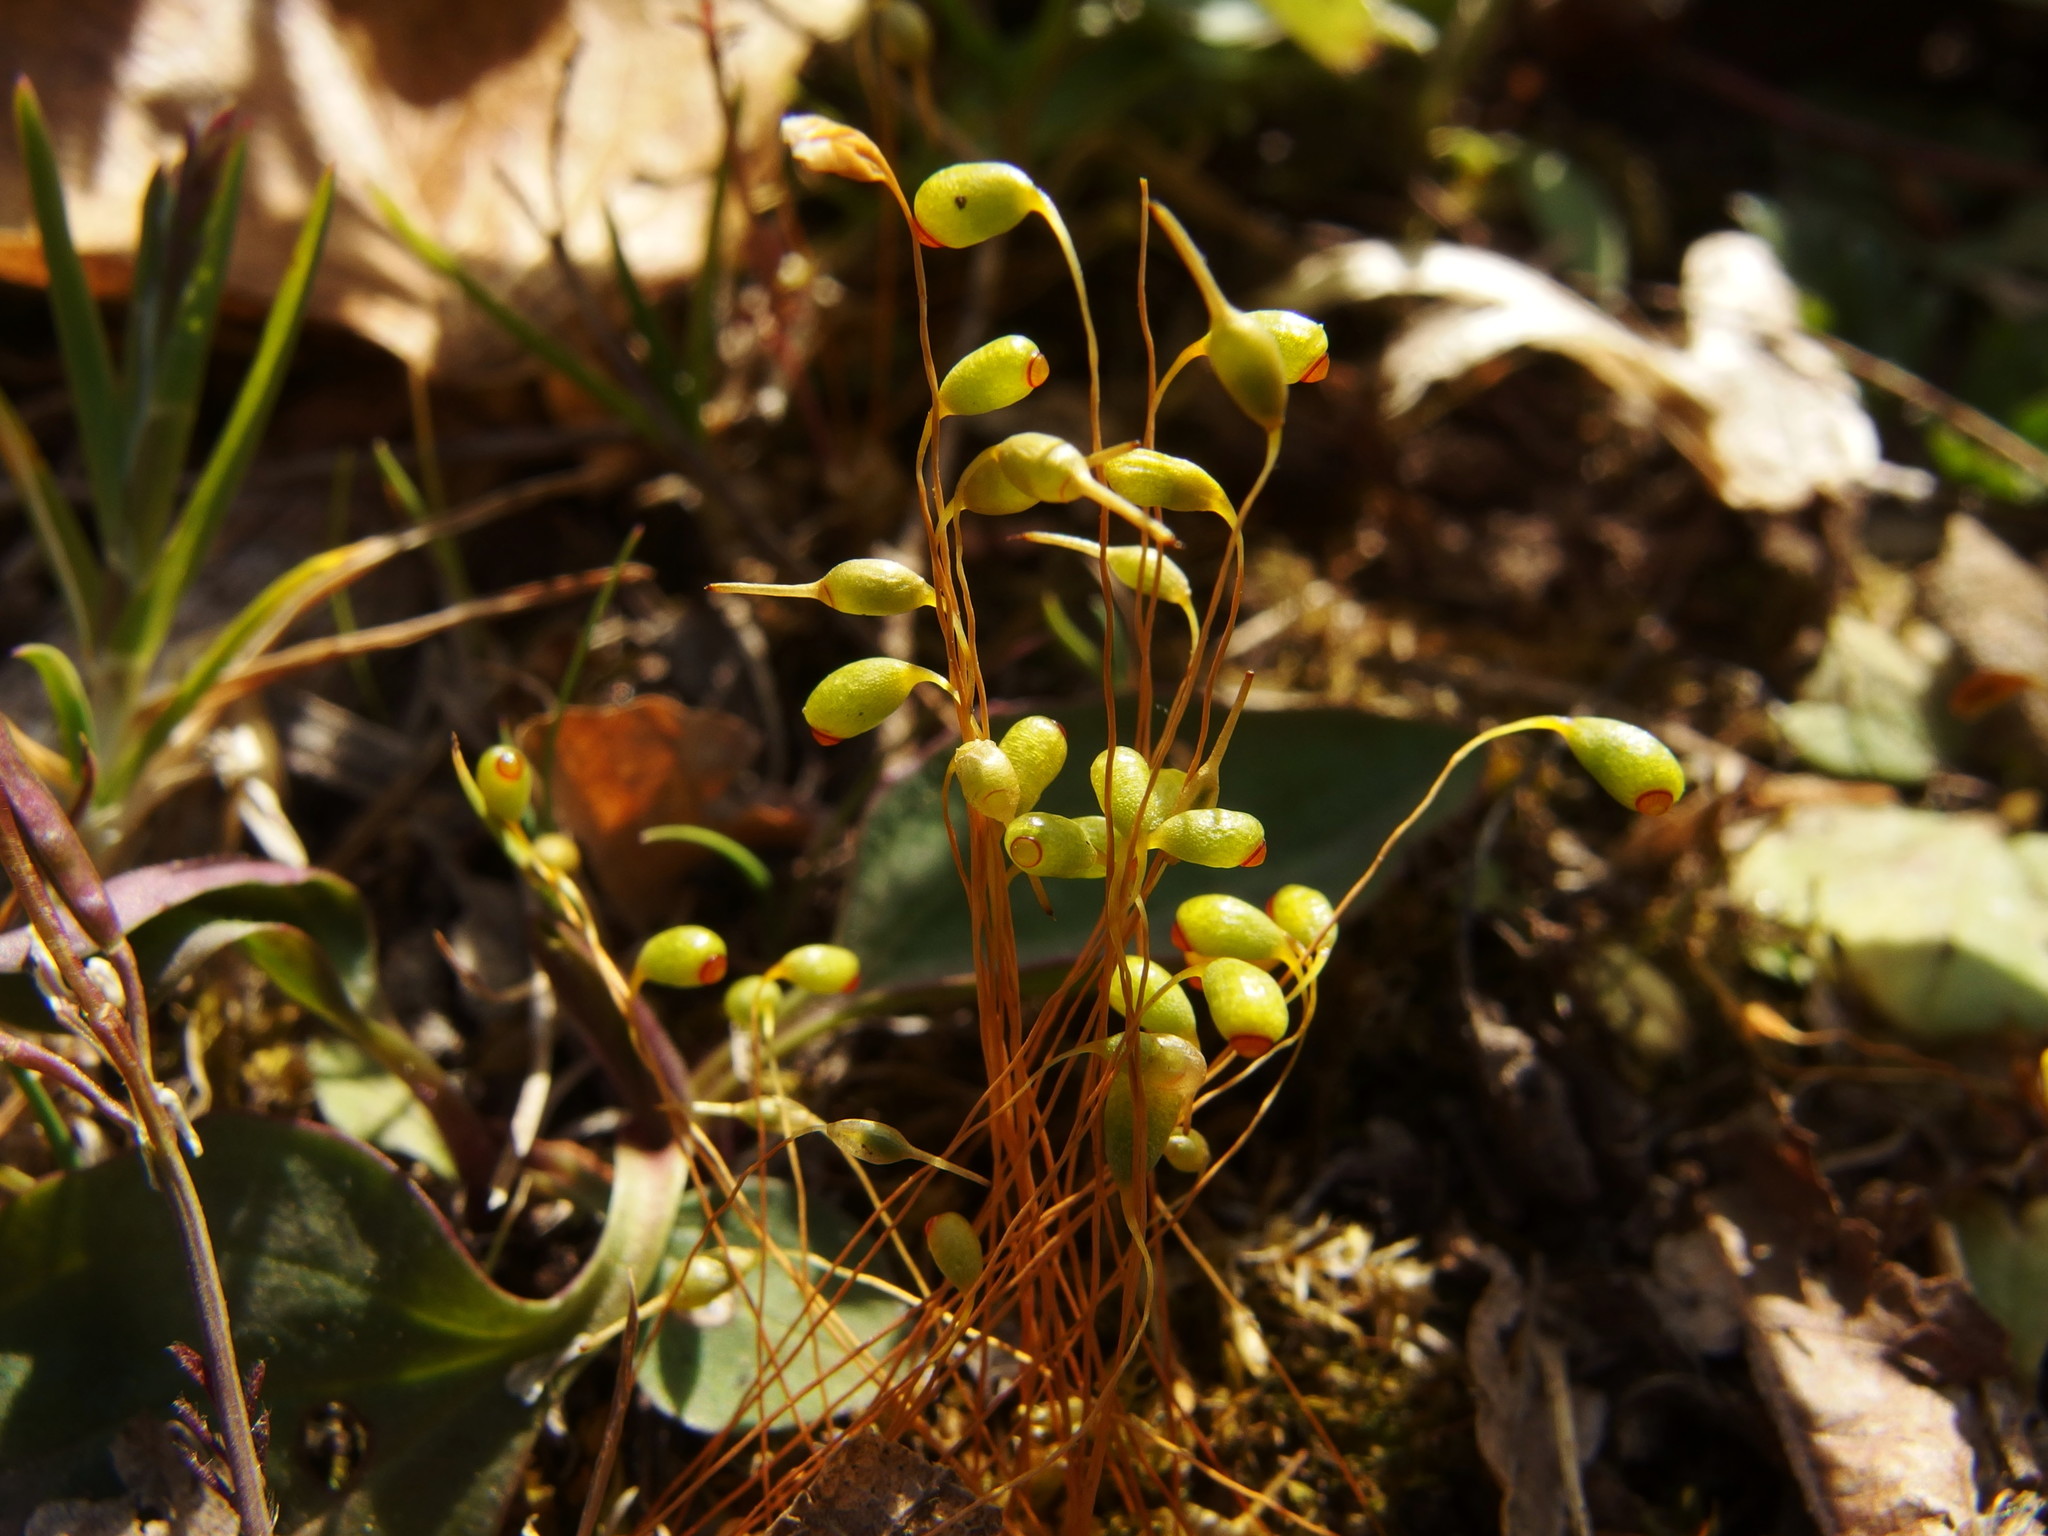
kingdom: Plantae
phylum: Bryophyta
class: Bryopsida
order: Funariales
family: Funariaceae
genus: Funaria
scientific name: Funaria hygrometrica
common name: Common cord moss
